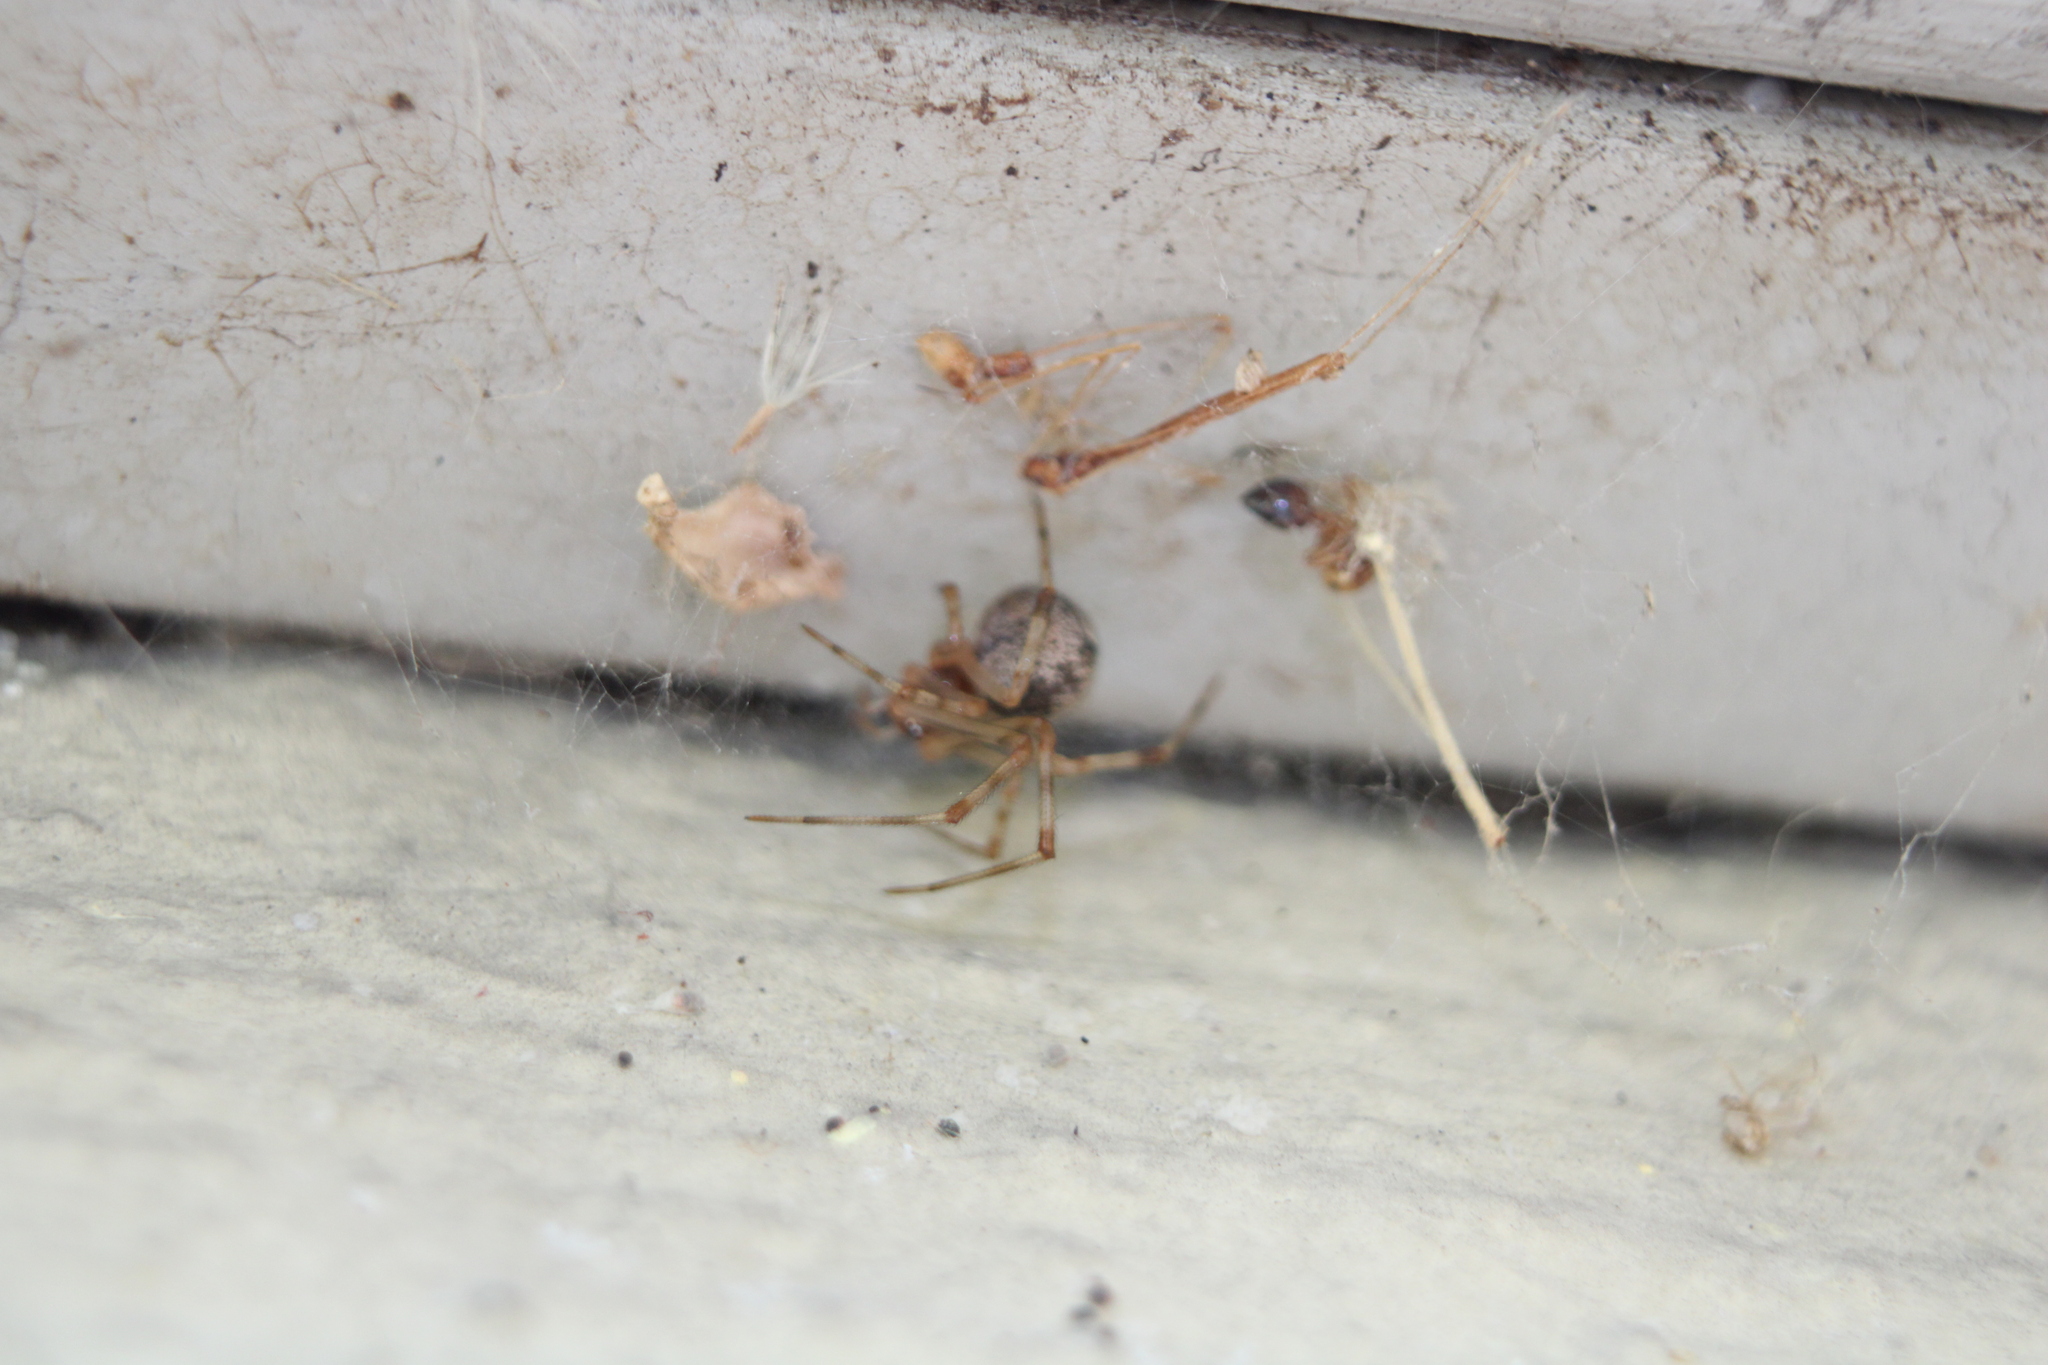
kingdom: Animalia
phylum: Arthropoda
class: Arachnida
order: Araneae
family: Theridiidae
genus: Parasteatoda
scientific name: Parasteatoda tepidariorum
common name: Common house spider
